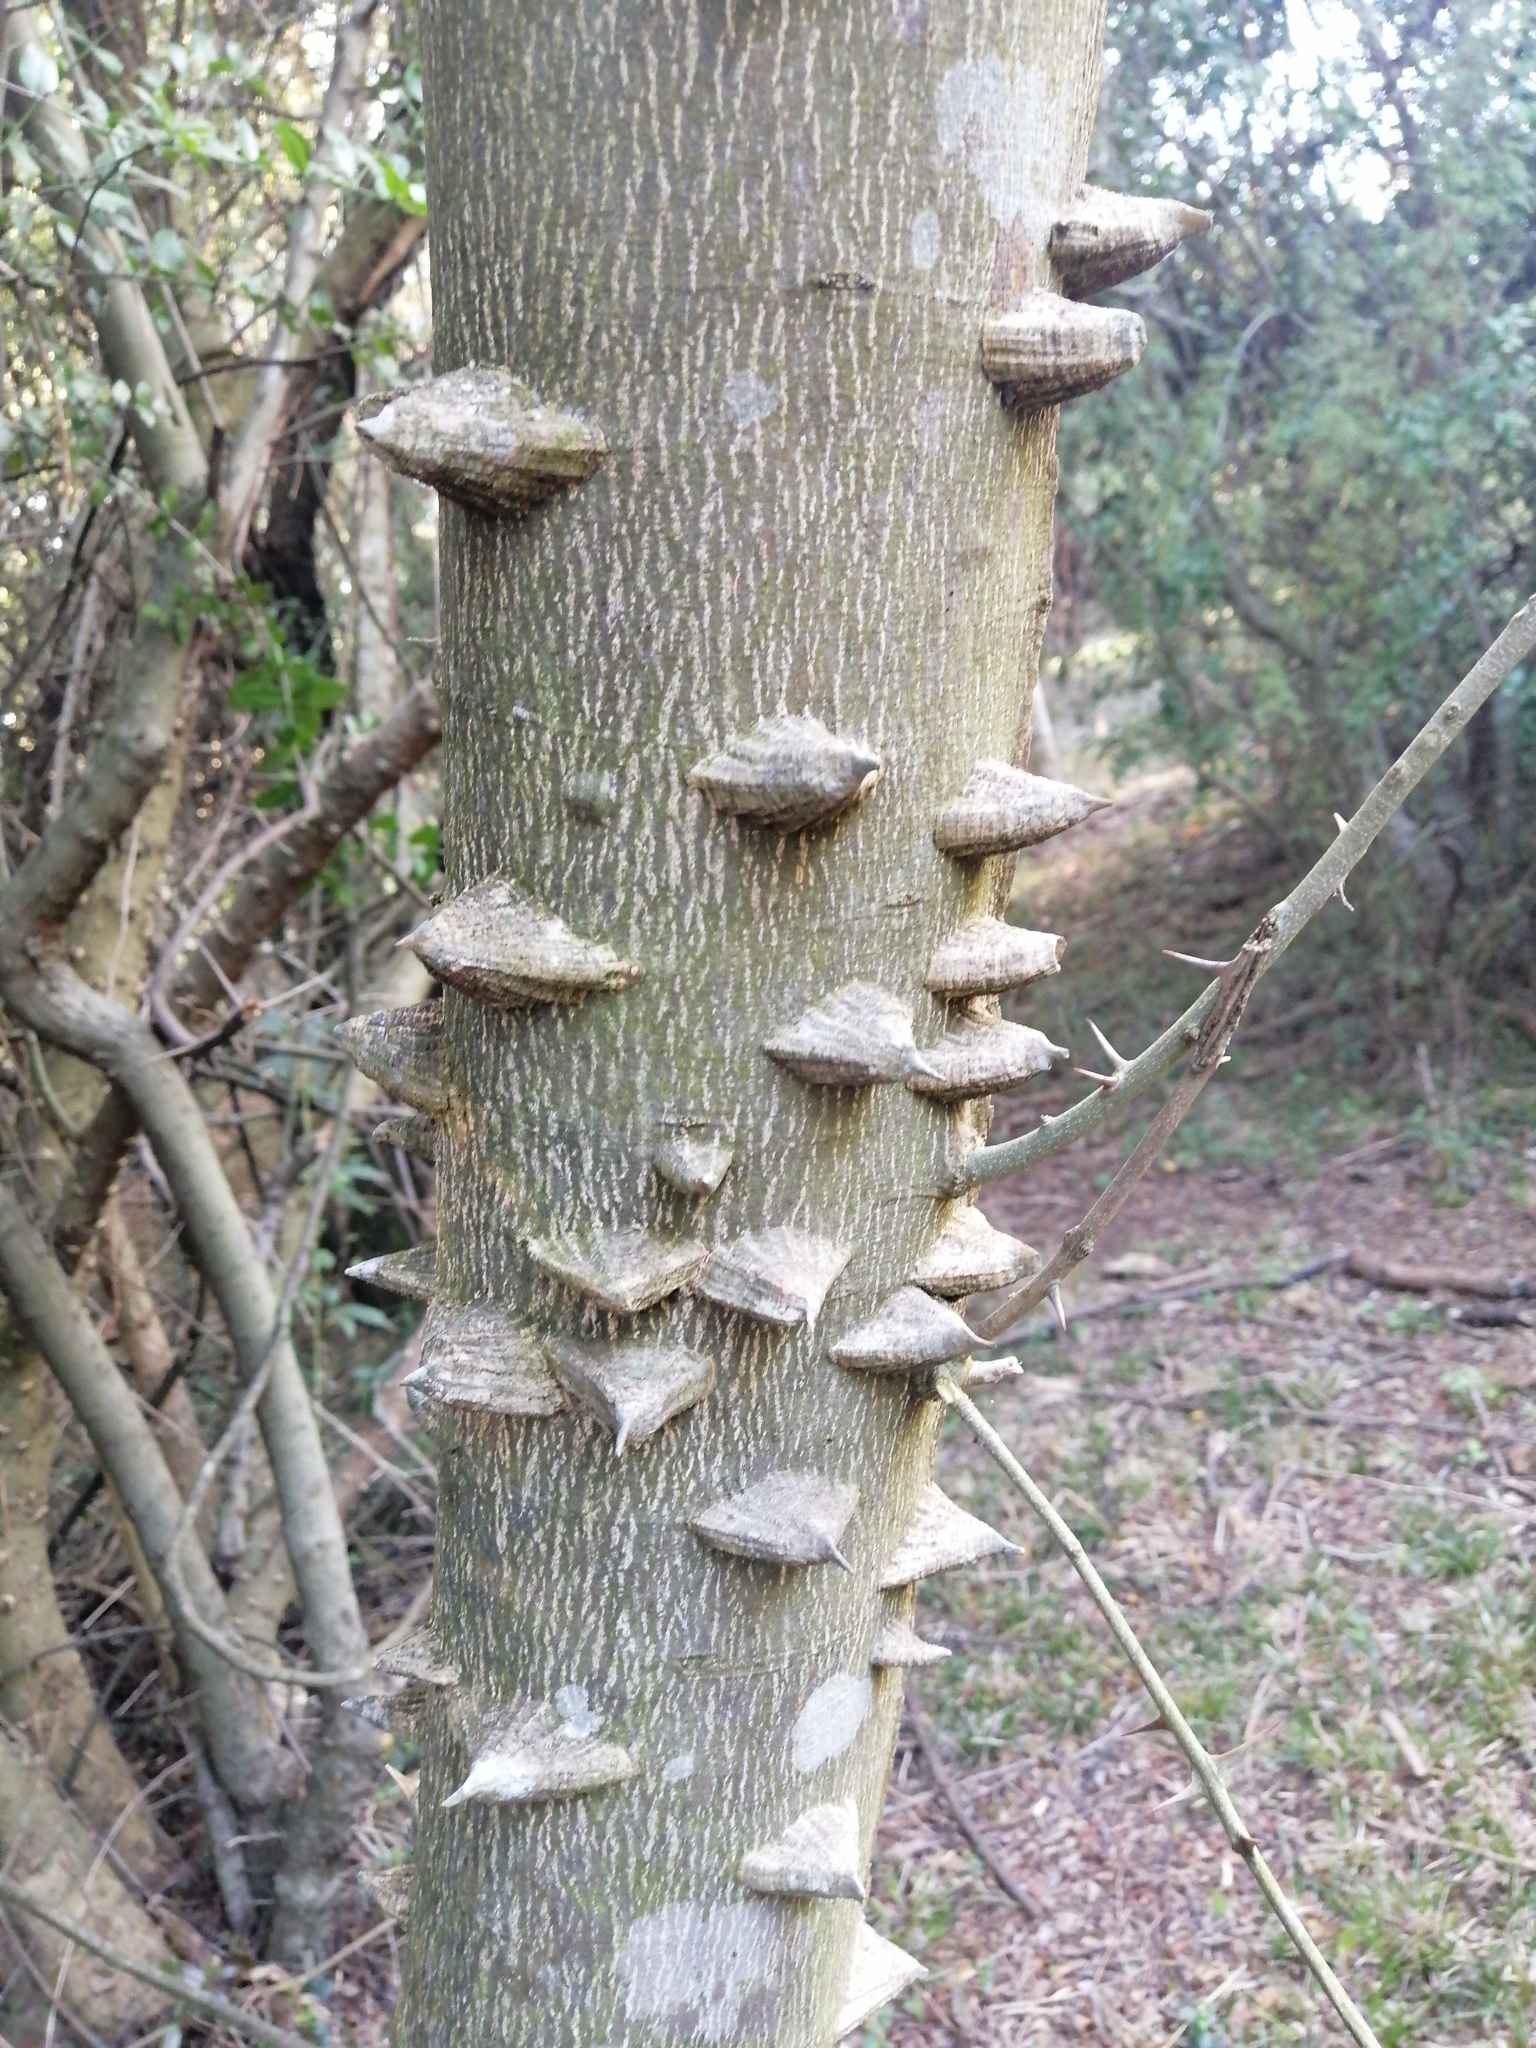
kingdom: Plantae
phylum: Tracheophyta
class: Magnoliopsida
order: Sapindales
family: Rutaceae
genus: Zanthoxylum
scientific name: Zanthoxylum rhoifolium
